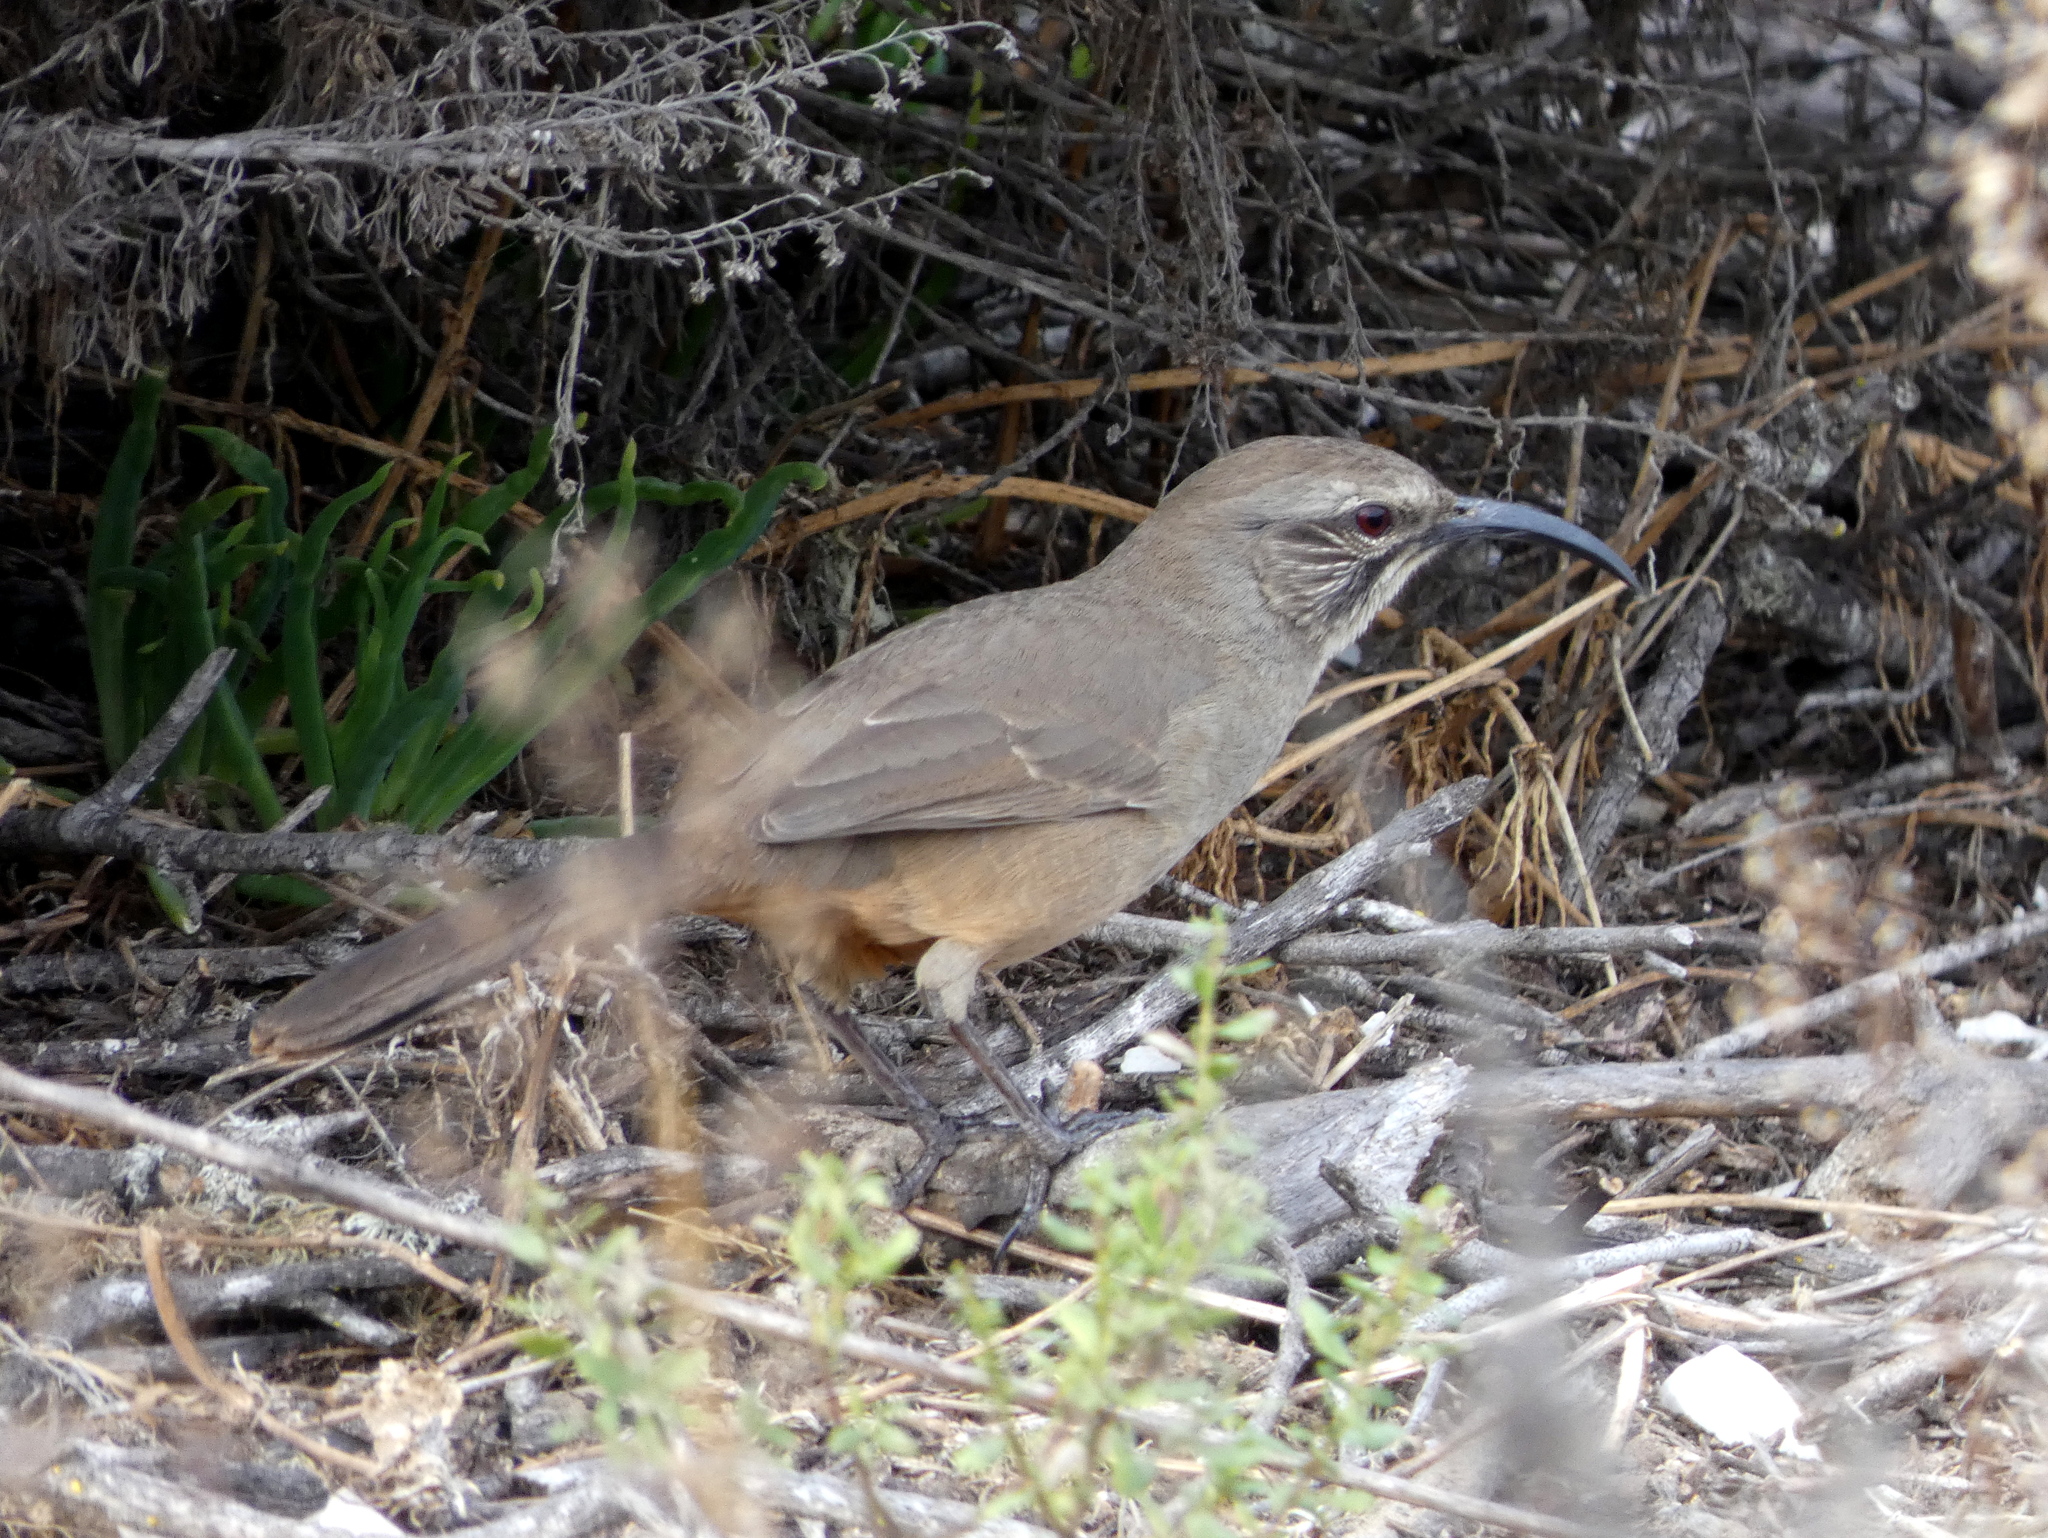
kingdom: Animalia
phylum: Chordata
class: Aves
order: Passeriformes
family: Mimidae
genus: Toxostoma
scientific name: Toxostoma redivivum
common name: California thrasher
